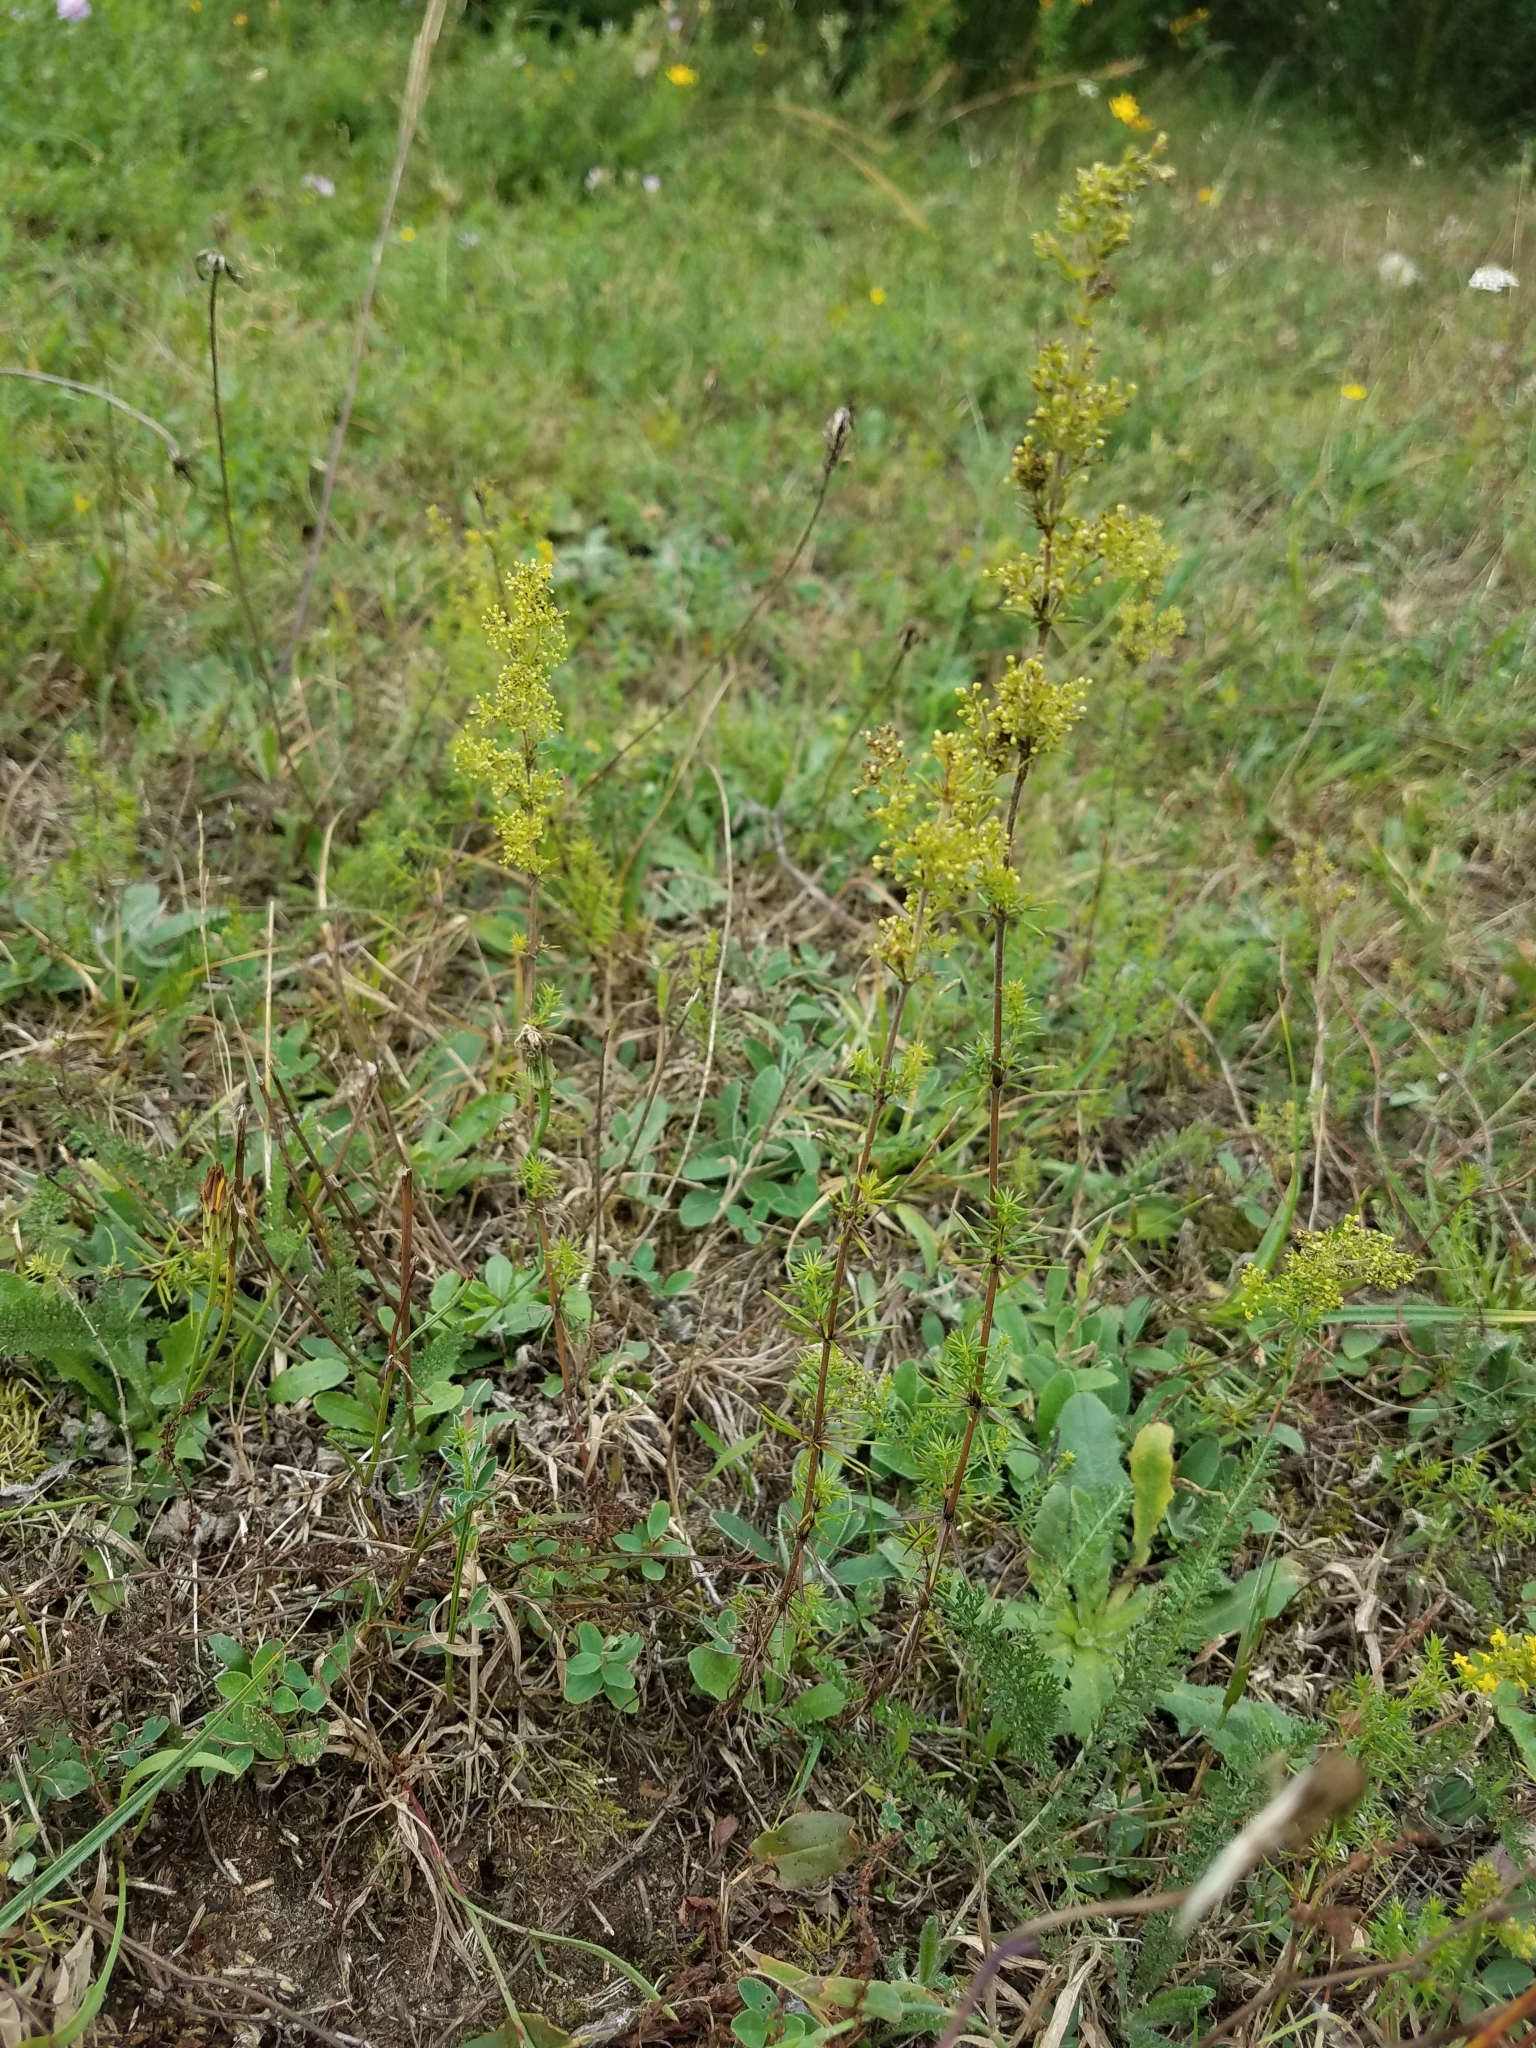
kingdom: Plantae
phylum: Tracheophyta
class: Magnoliopsida
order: Gentianales
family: Rubiaceae
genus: Galium
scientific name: Galium verum
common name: Lady's bedstraw
